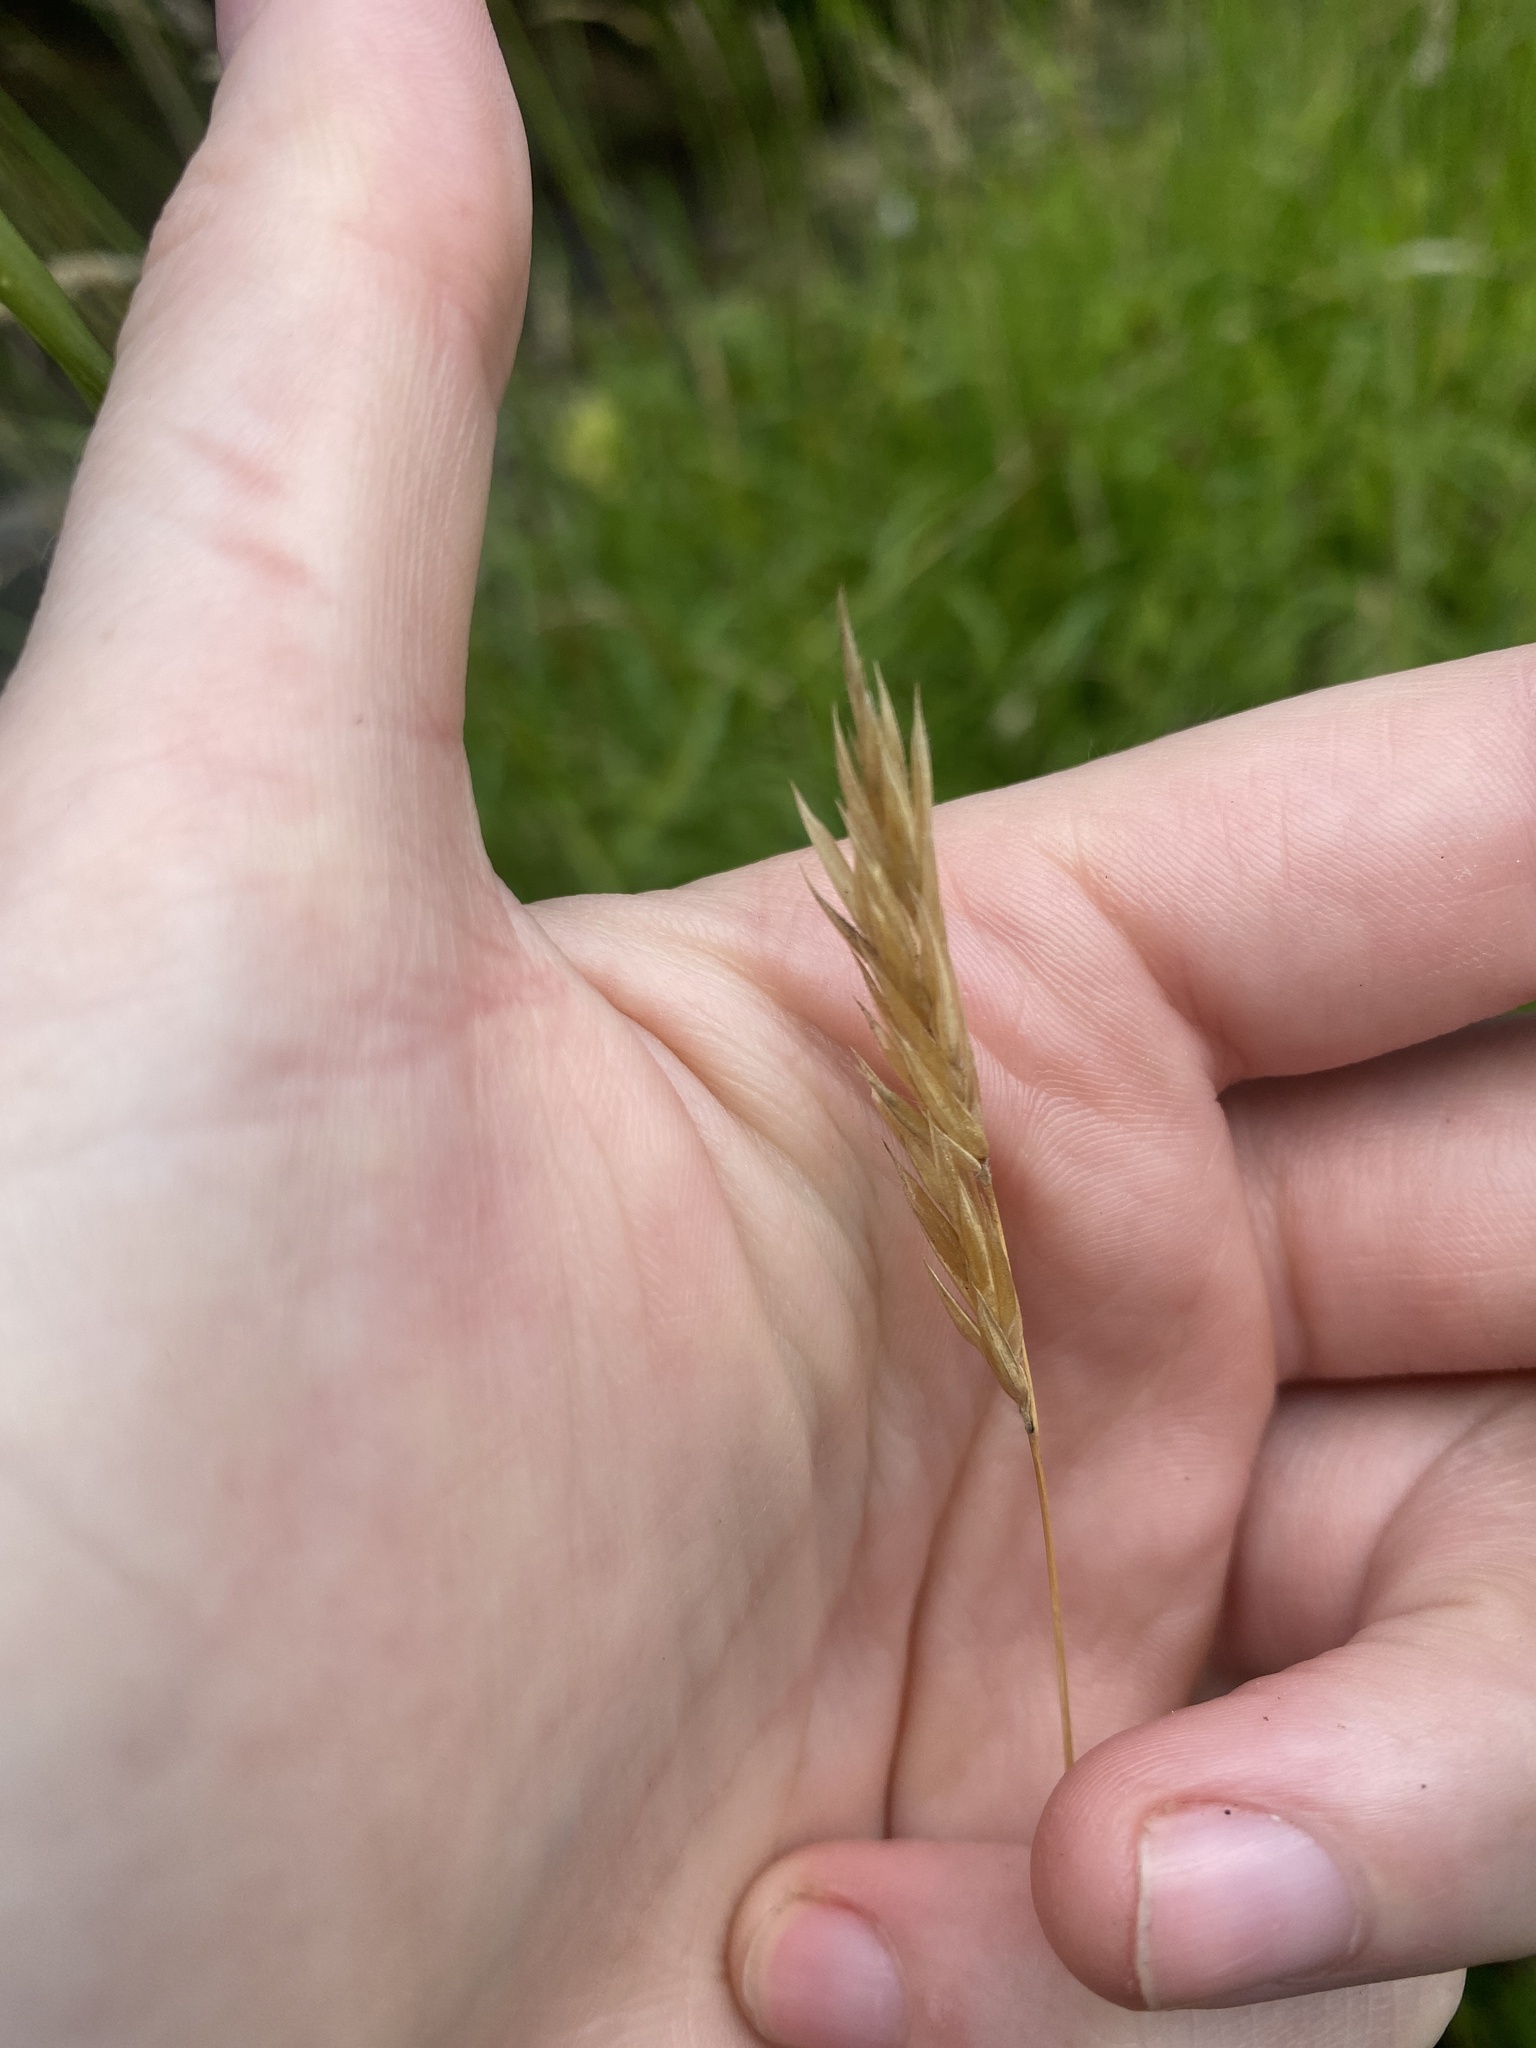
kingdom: Plantae
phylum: Tracheophyta
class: Liliopsida
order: Poales
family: Poaceae
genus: Anthoxanthum
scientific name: Anthoxanthum odoratum
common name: Sweet vernalgrass
